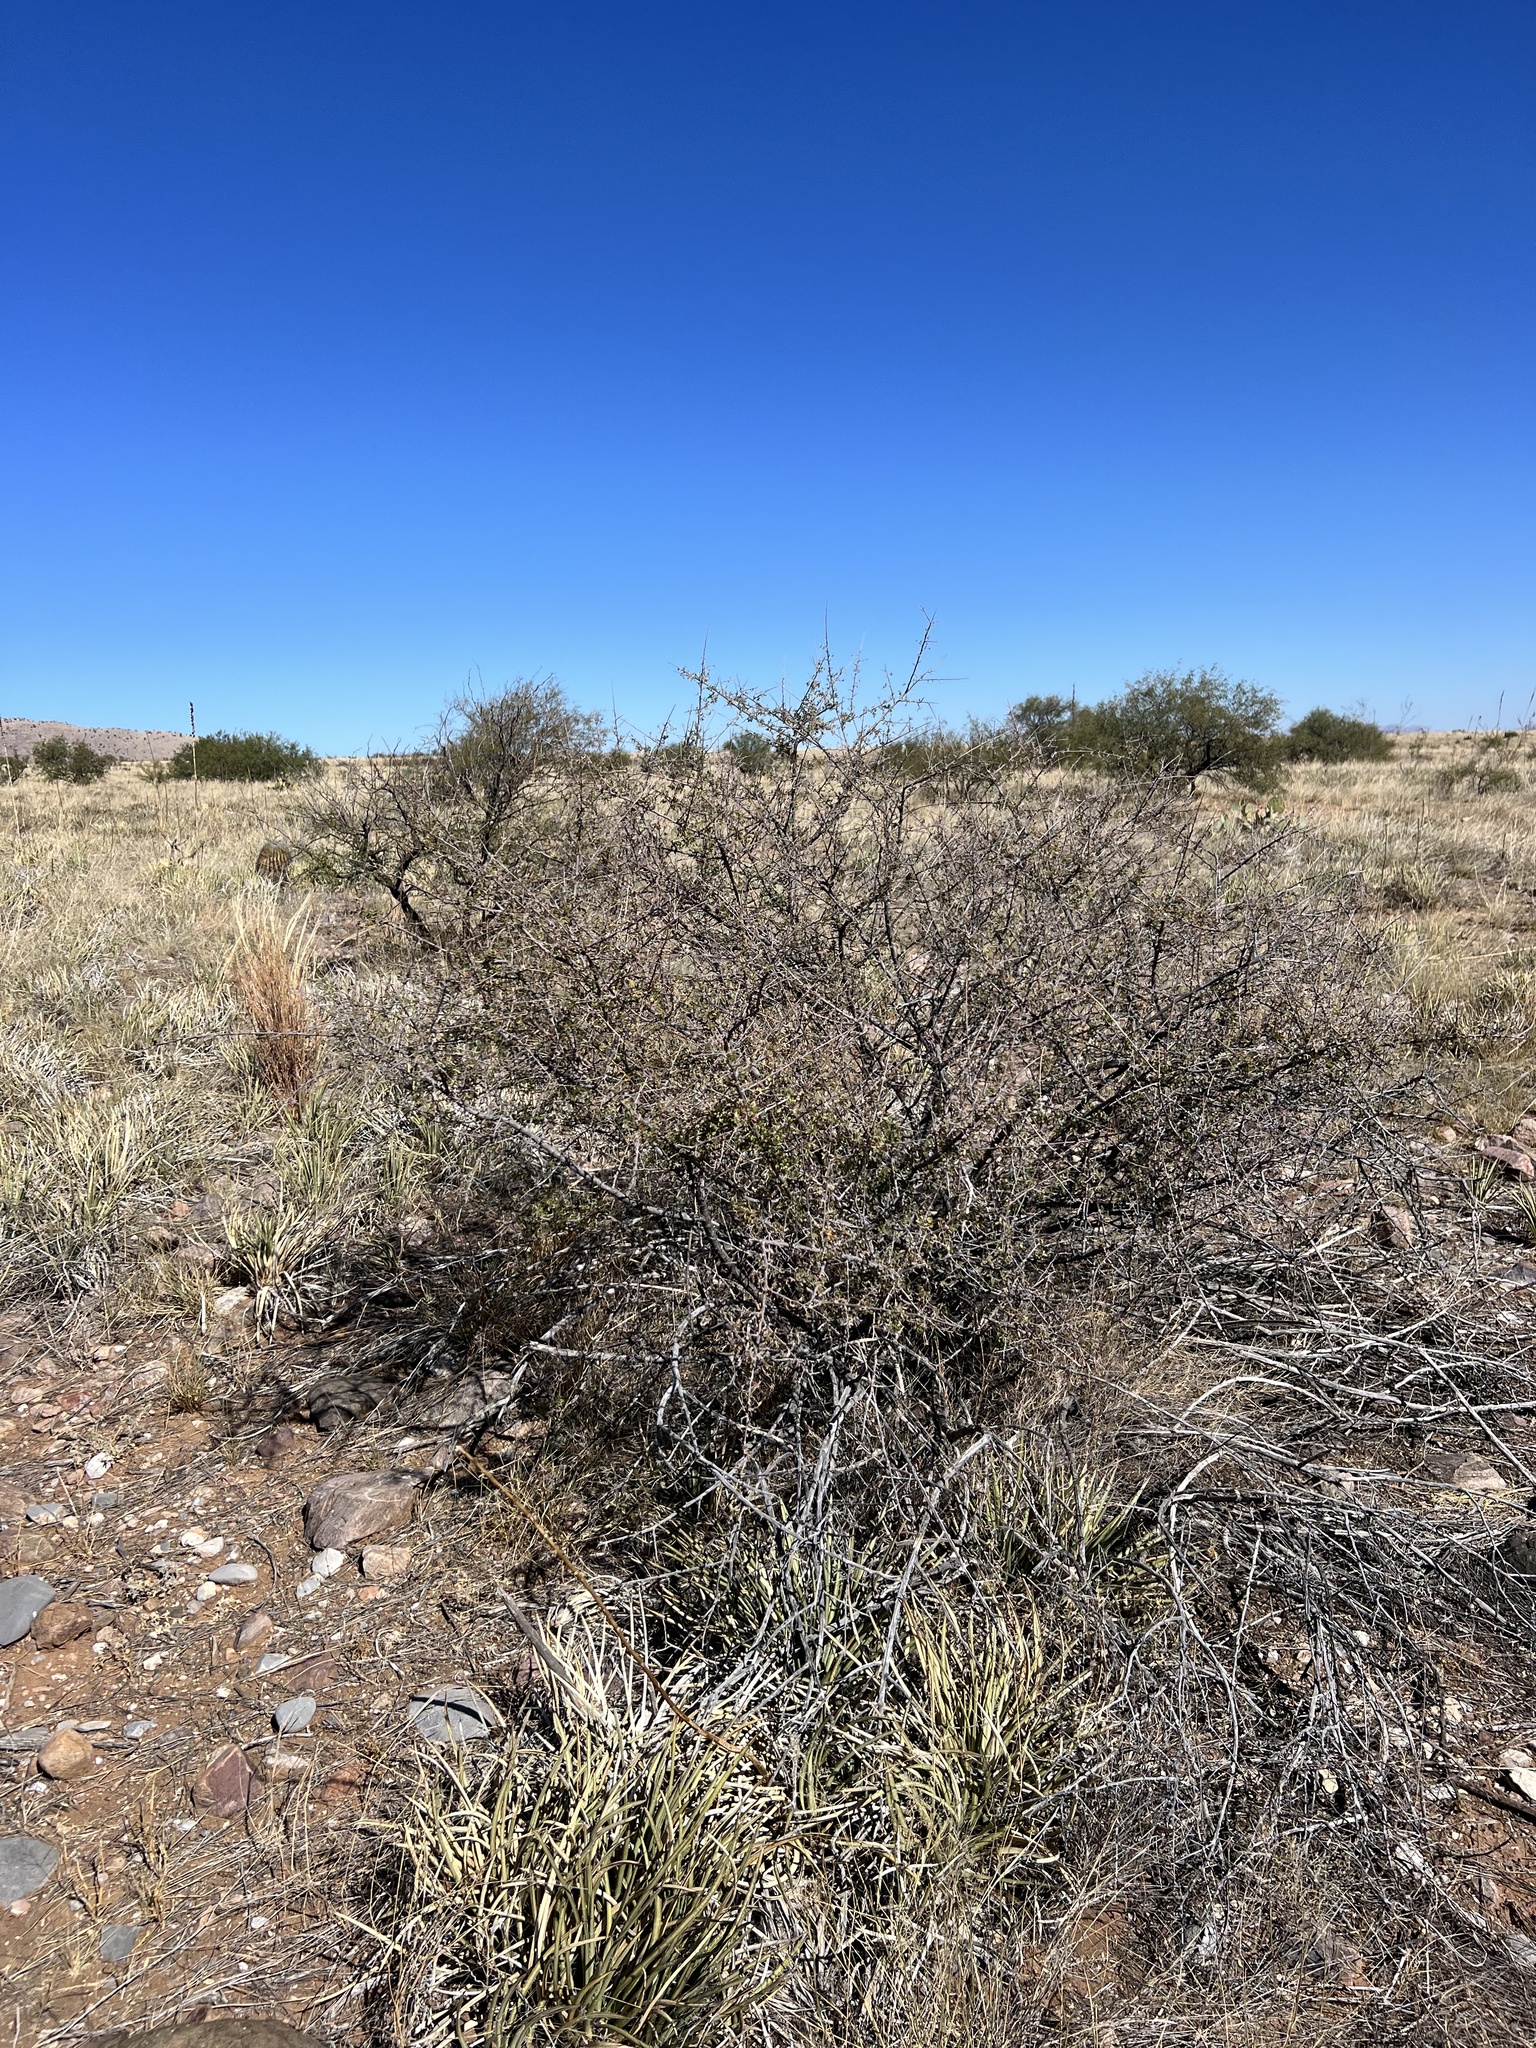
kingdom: Plantae
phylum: Tracheophyta
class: Magnoliopsida
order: Sapindales
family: Anacardiaceae
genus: Rhus
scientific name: Rhus microphylla
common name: Desert sumac
